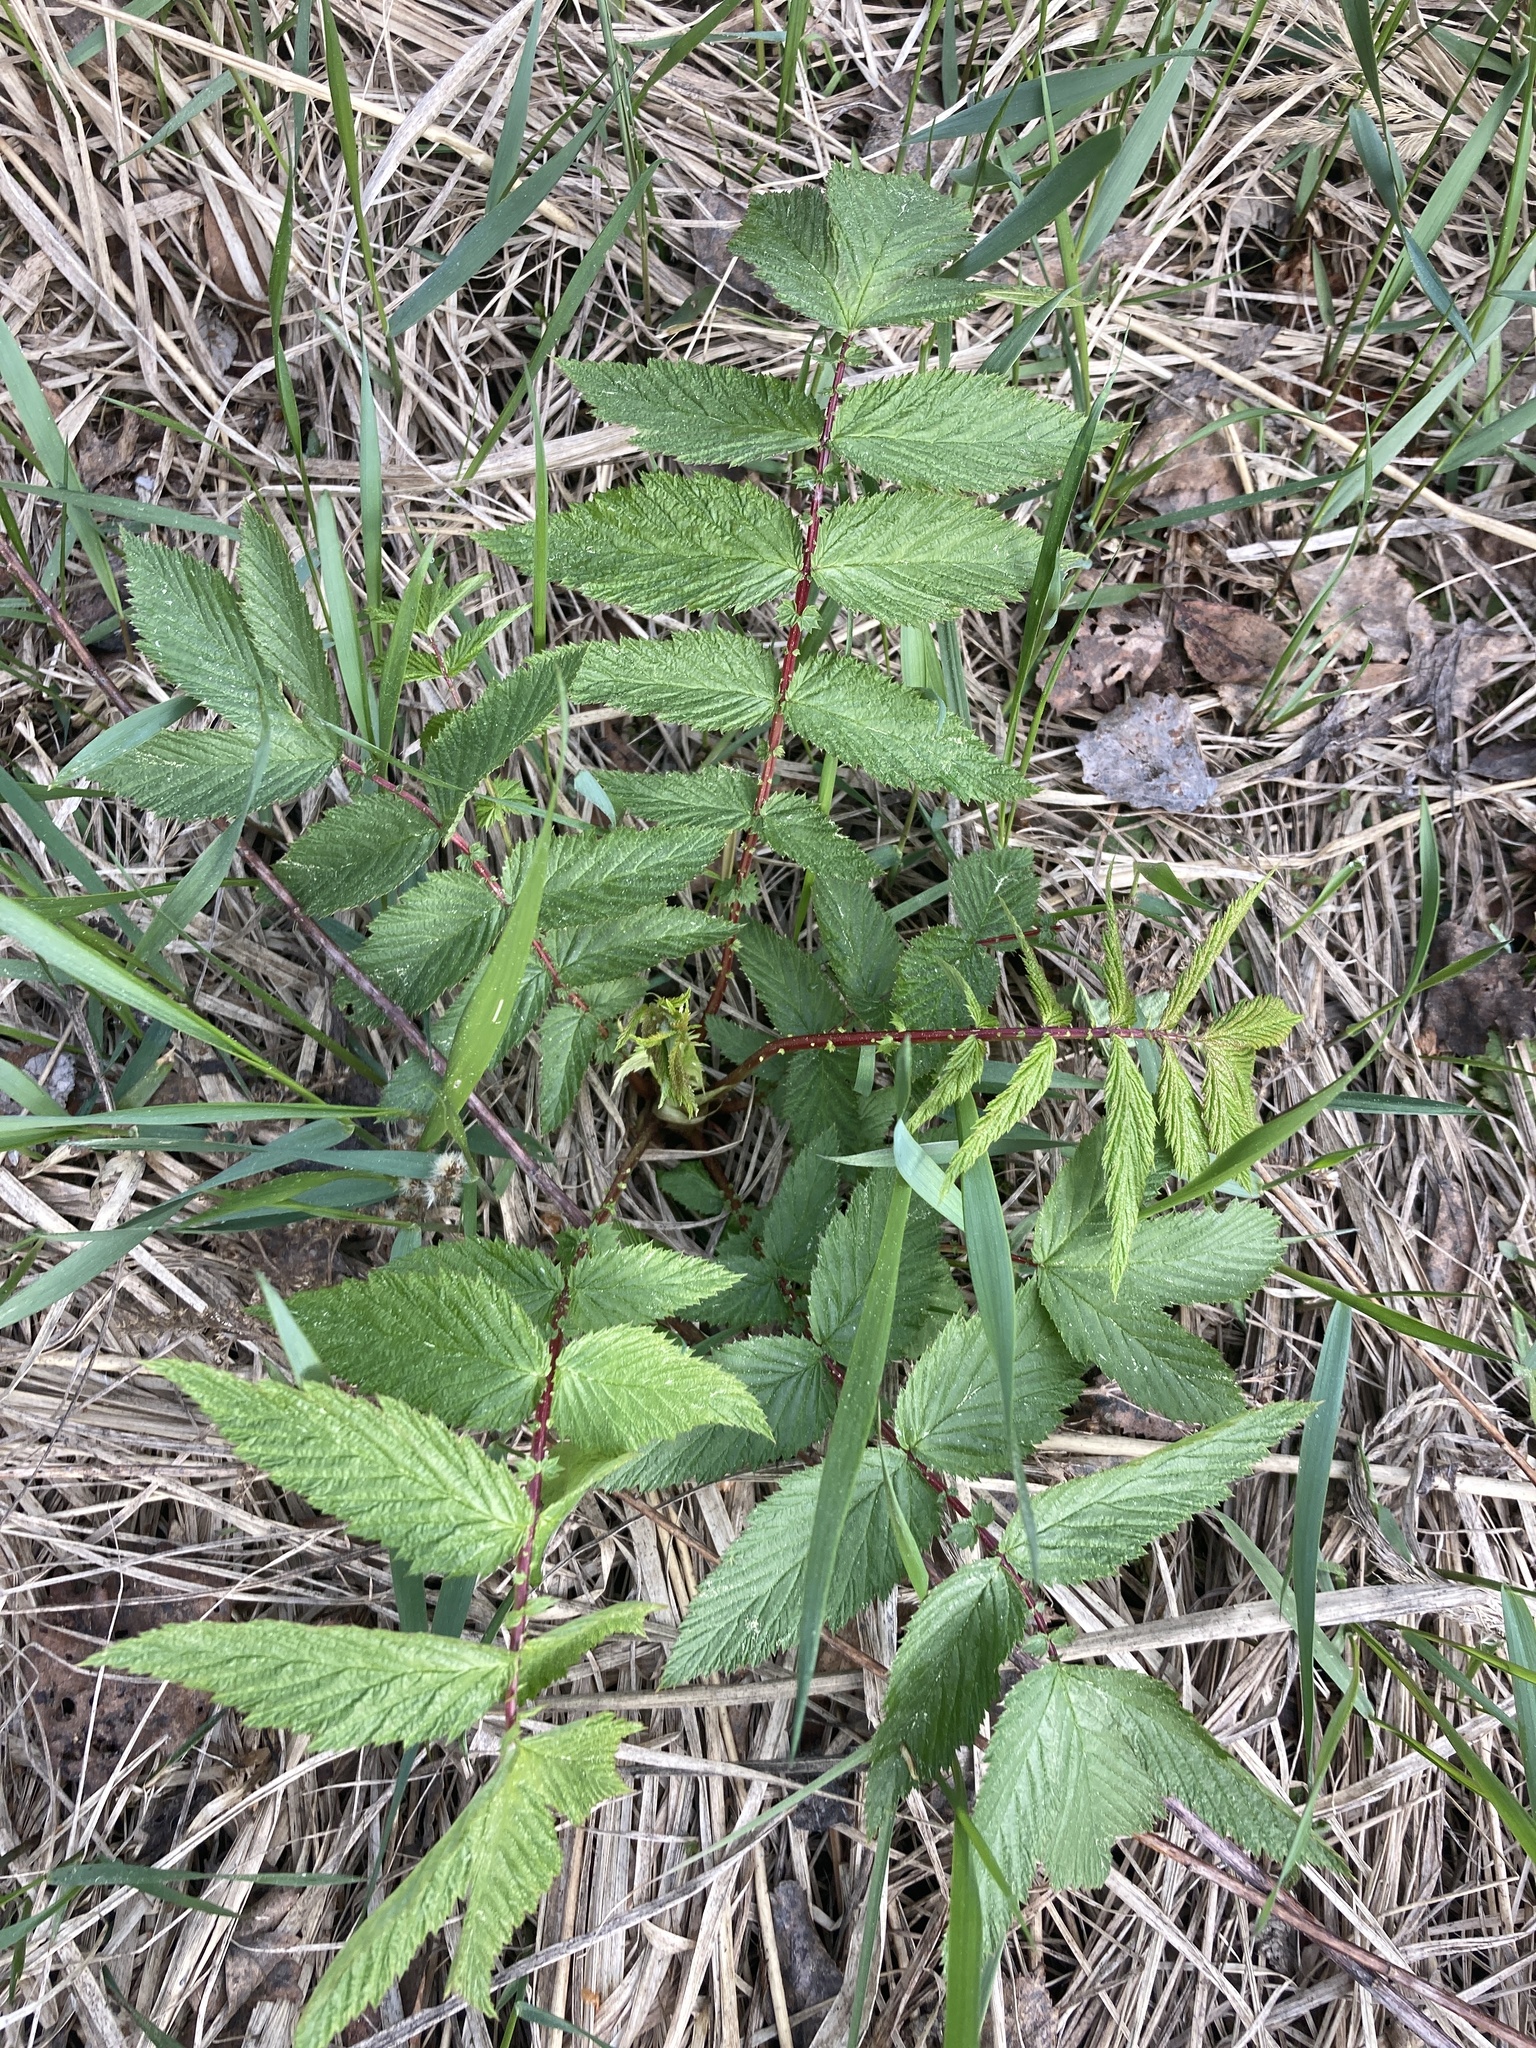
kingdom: Plantae
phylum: Tracheophyta
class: Magnoliopsida
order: Rosales
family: Rosaceae
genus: Filipendula
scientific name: Filipendula ulmaria
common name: Meadowsweet
